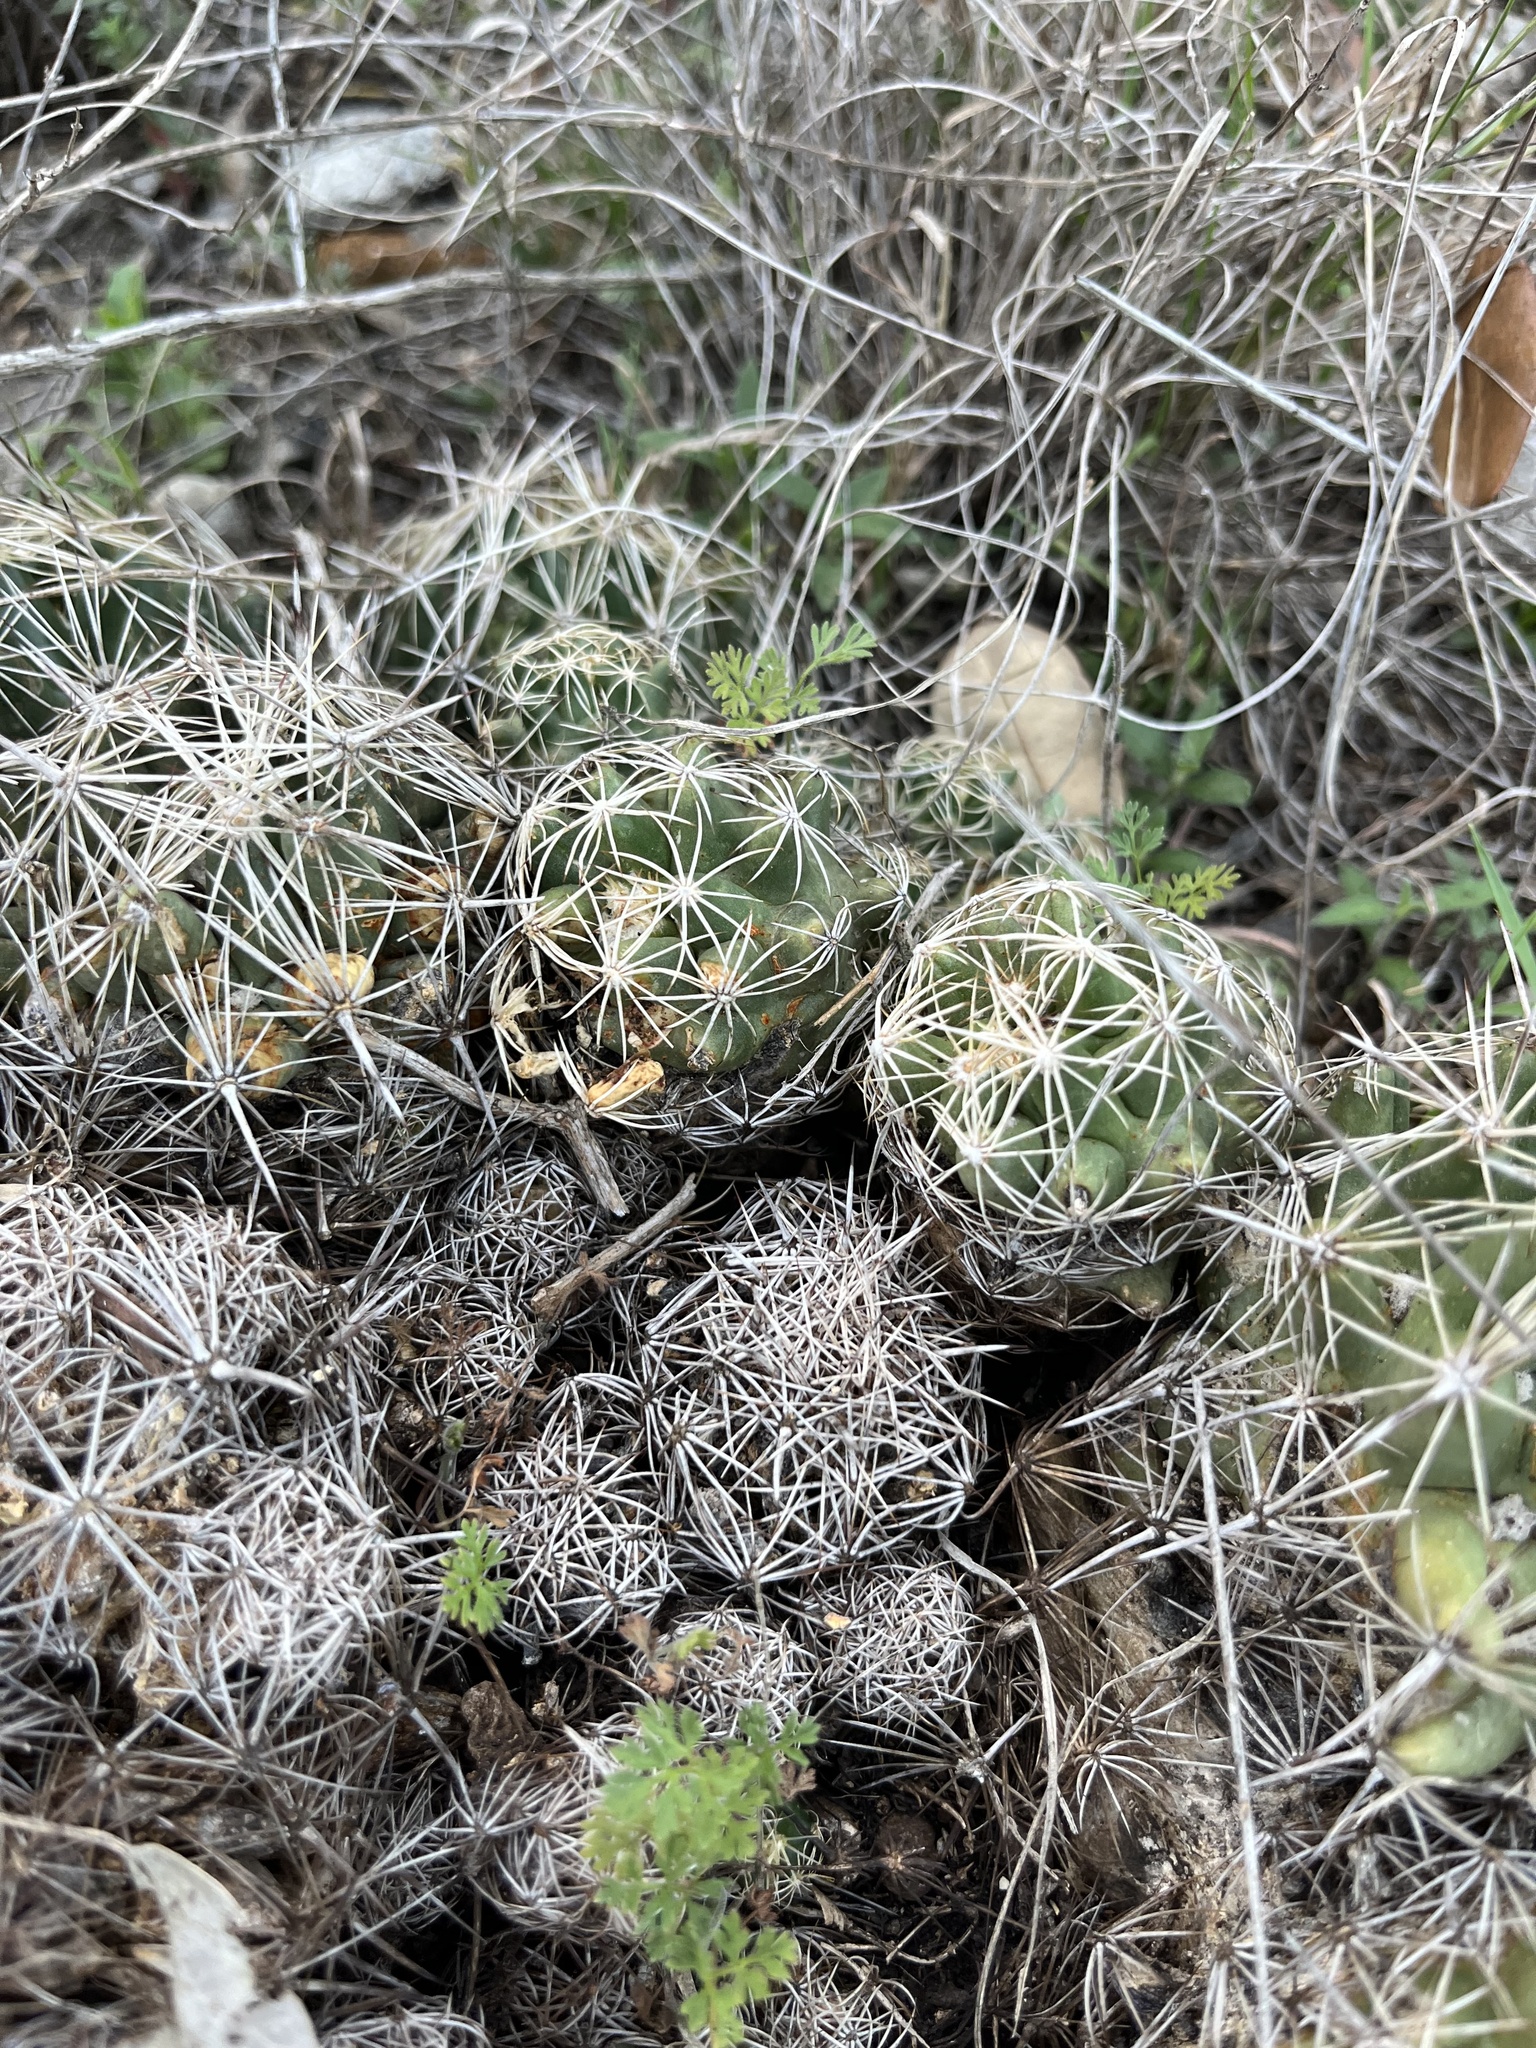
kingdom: Plantae
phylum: Tracheophyta
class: Magnoliopsida
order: Caryophyllales
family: Cactaceae
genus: Coryphantha
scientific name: Coryphantha sulcata
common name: Finger cactus
